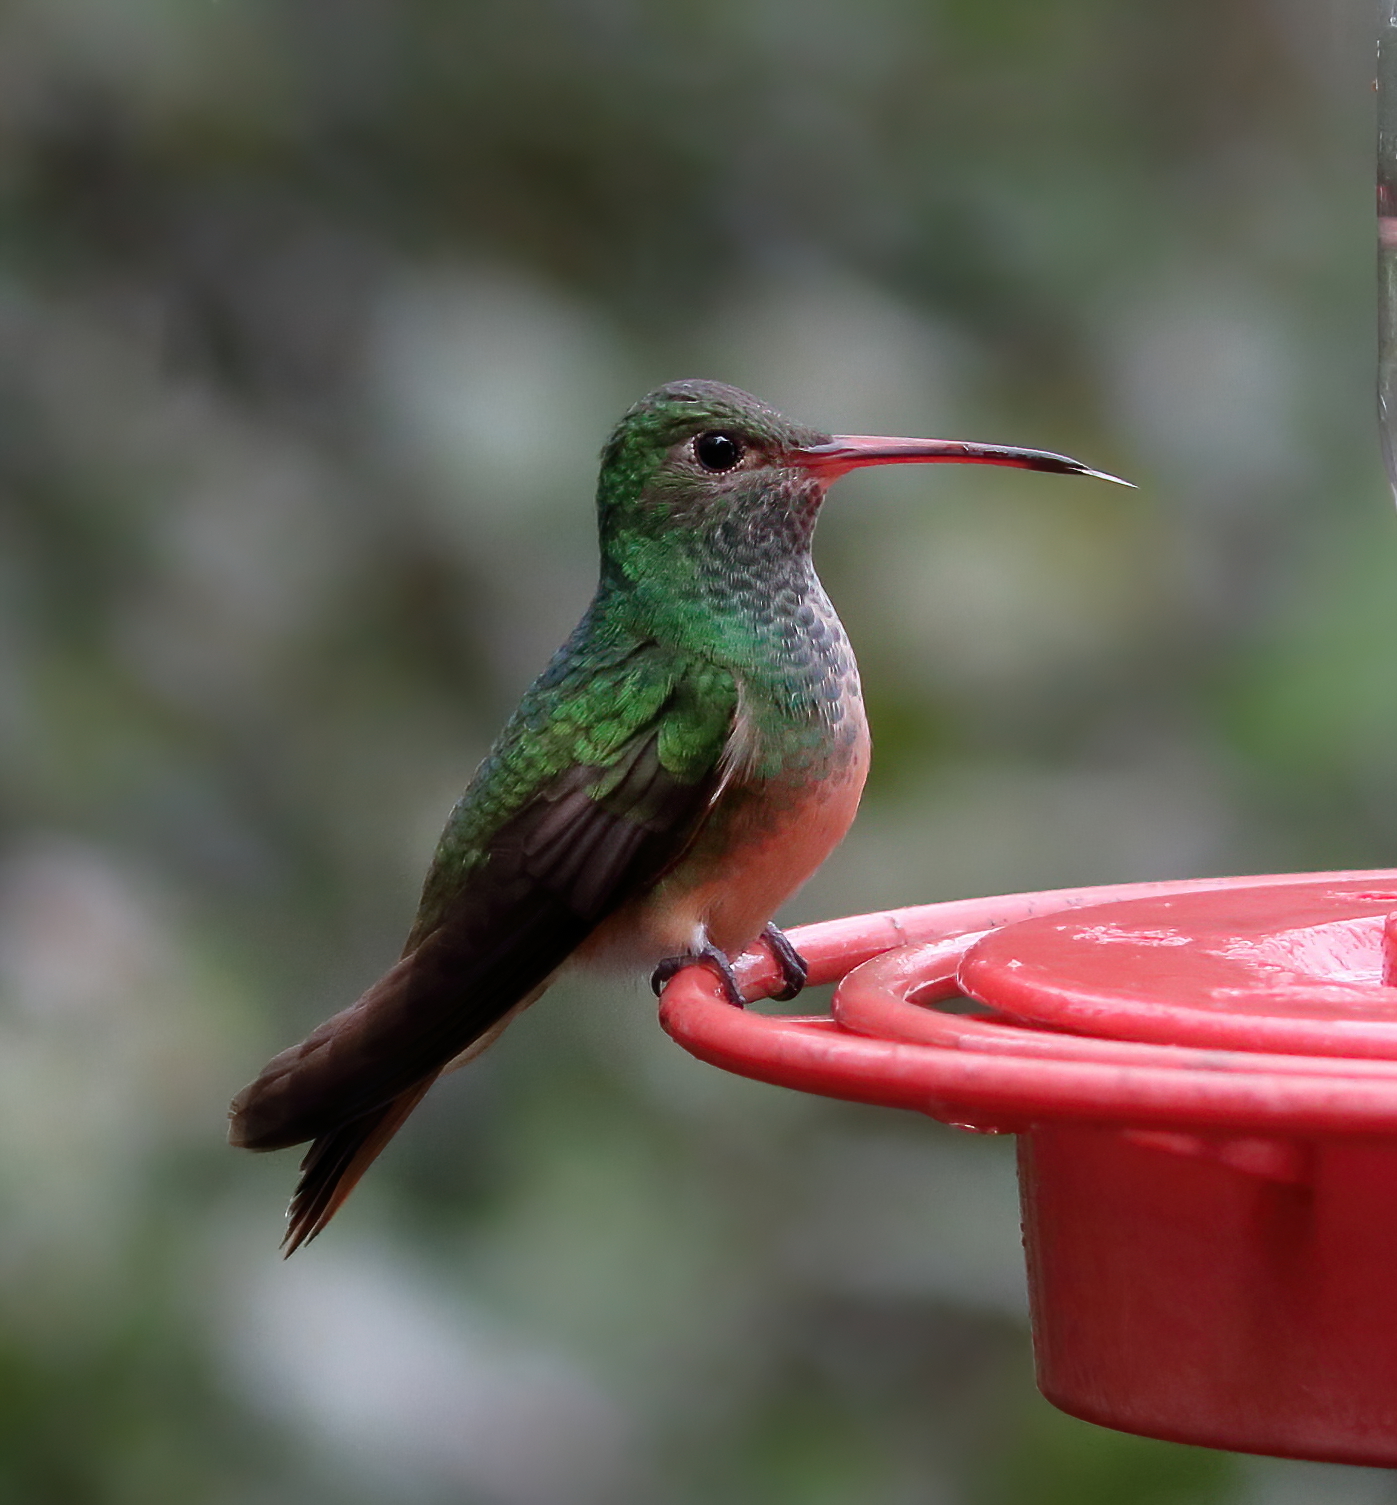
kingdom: Animalia
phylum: Chordata
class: Aves
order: Apodiformes
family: Trochilidae
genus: Amazilia
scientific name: Amazilia yucatanensis
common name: Buff-bellied hummingbird
